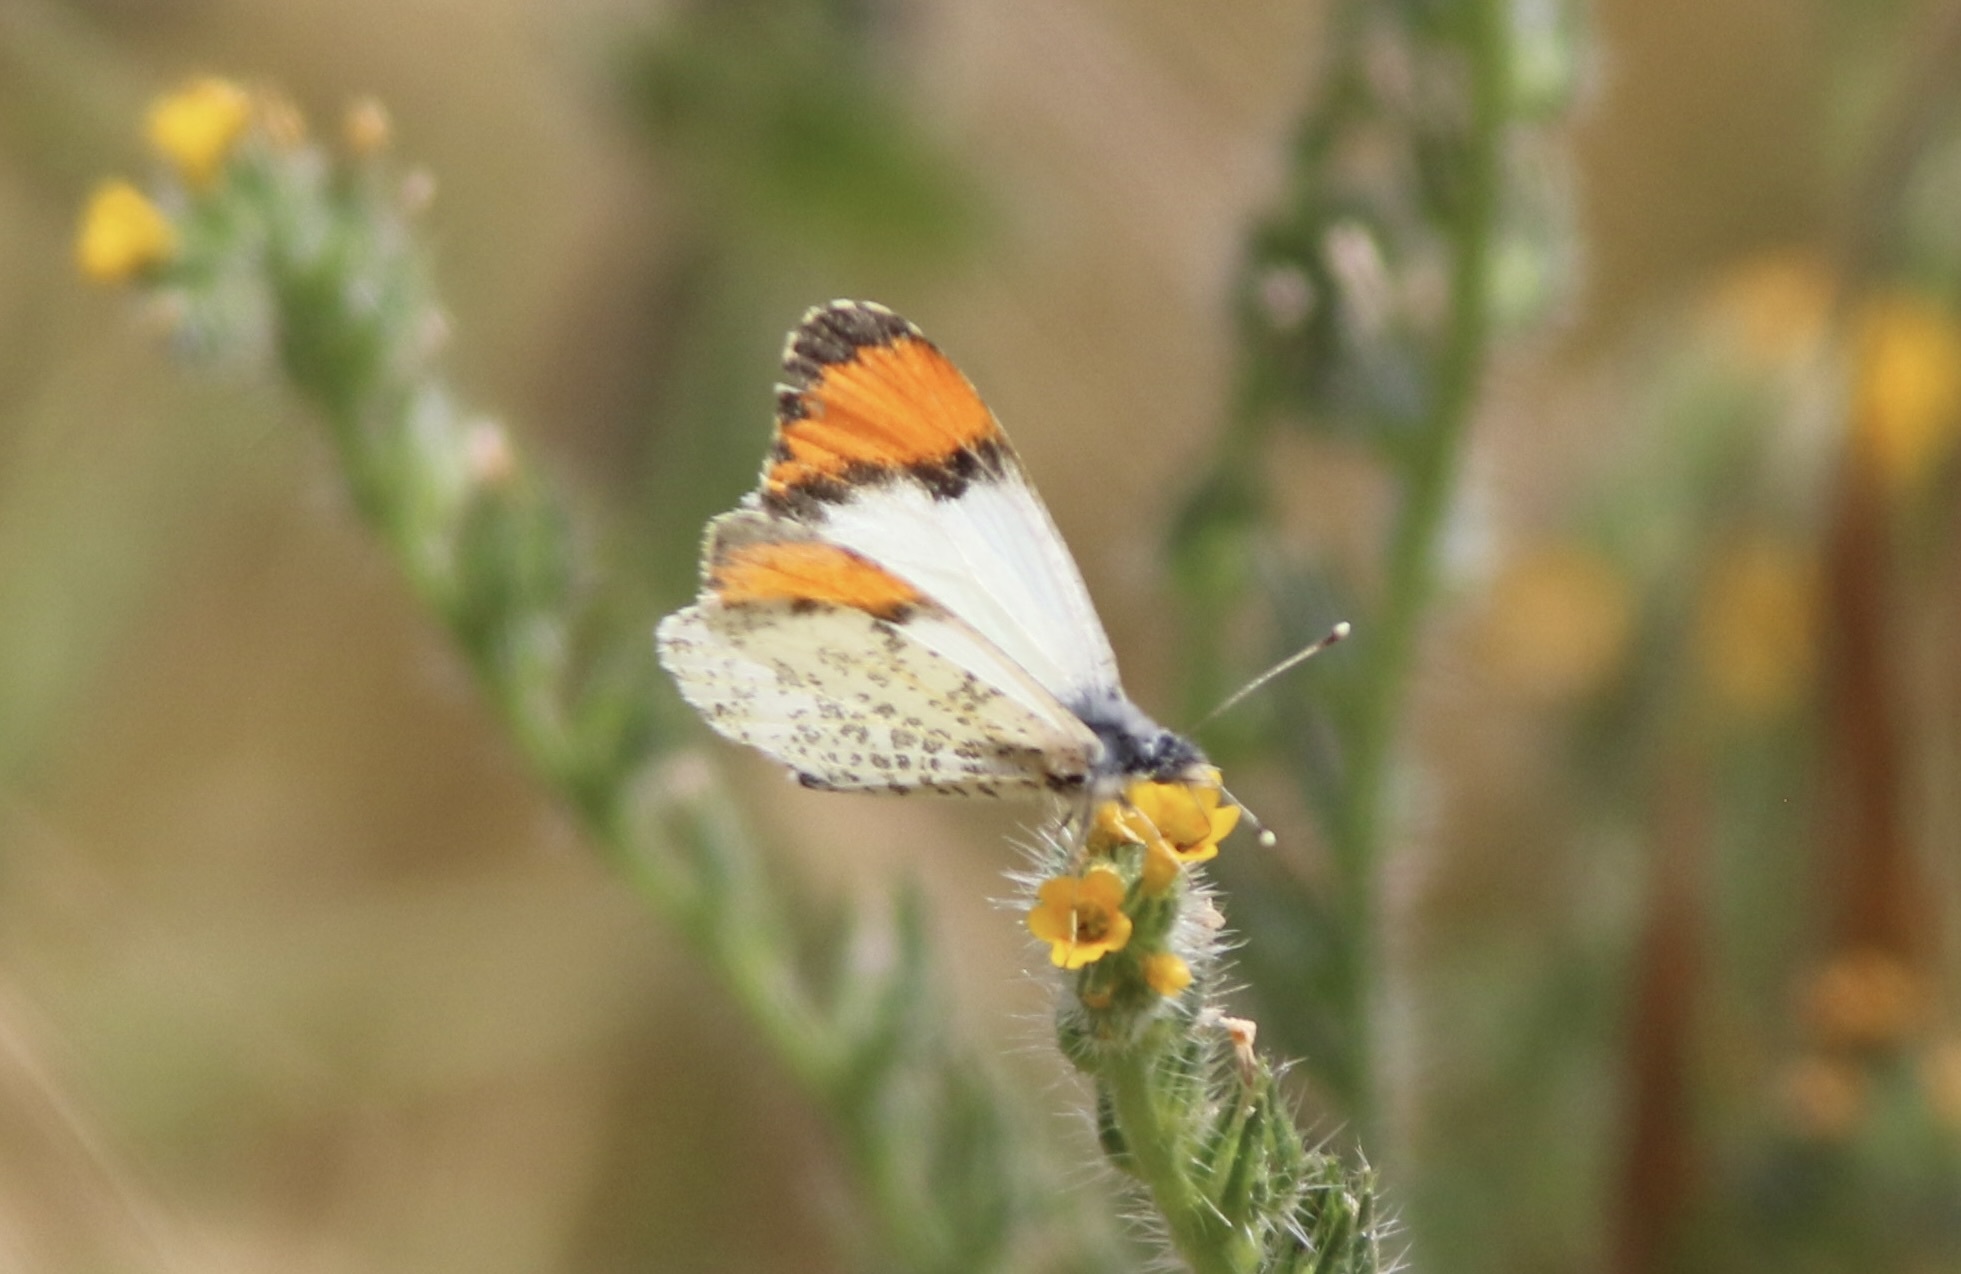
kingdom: Animalia
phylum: Arthropoda
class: Insecta
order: Lepidoptera
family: Pieridae
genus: Anthocharis
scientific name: Anthocharis sara
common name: Sara's orangetip
